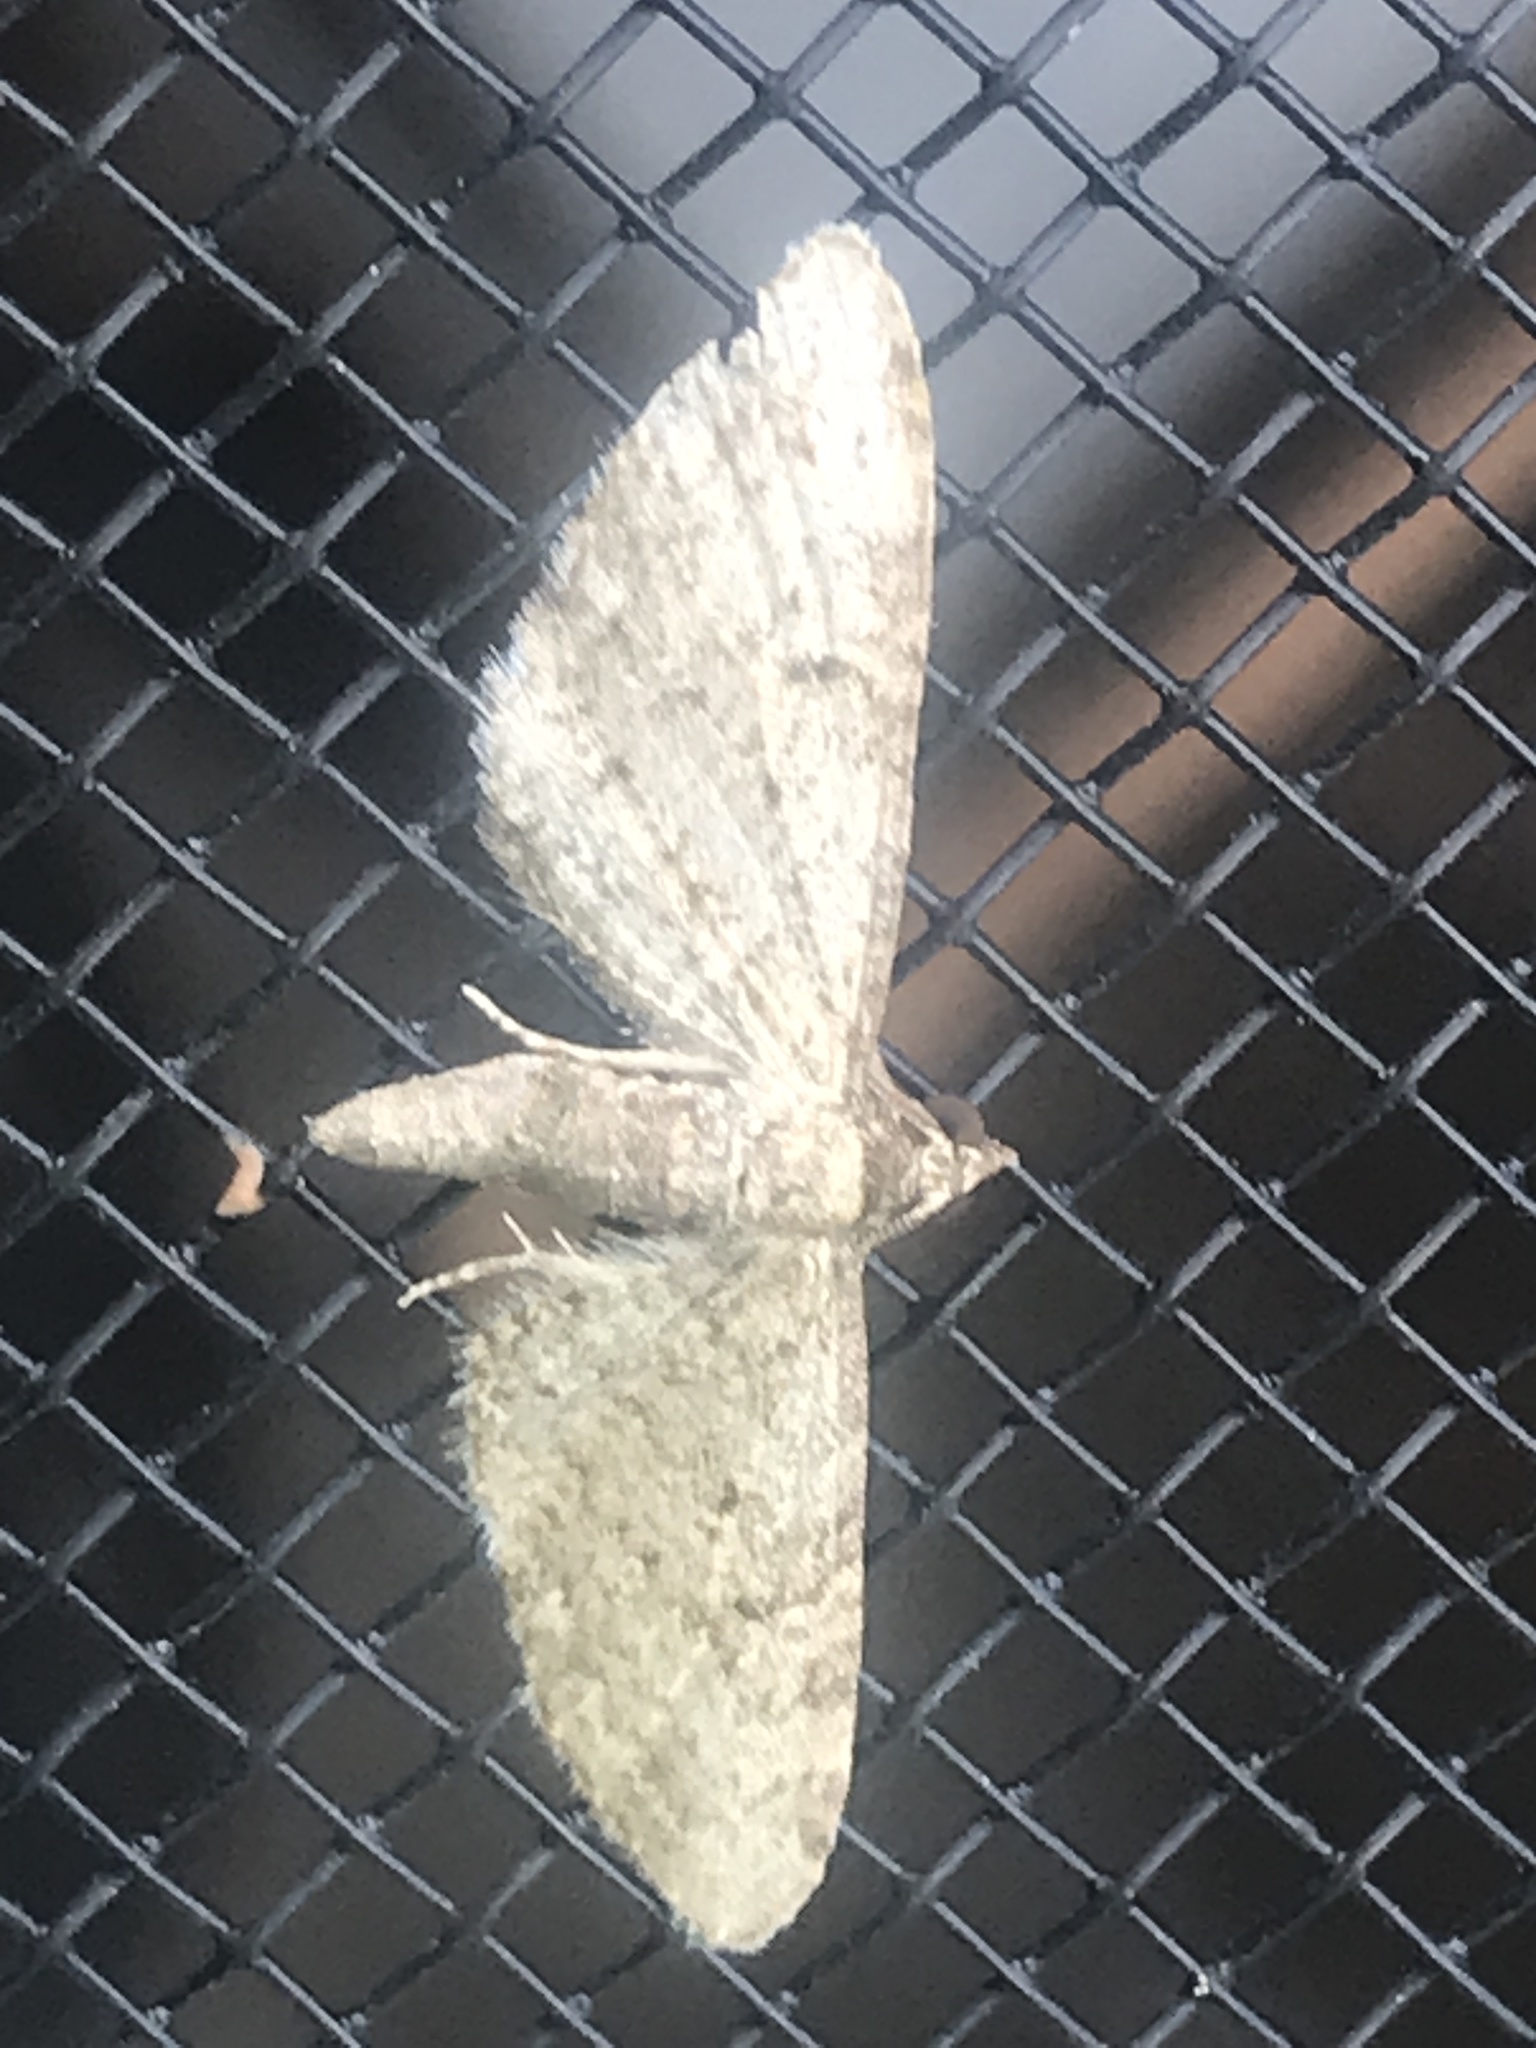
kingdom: Animalia
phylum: Arthropoda
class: Insecta
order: Lepidoptera
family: Geometridae
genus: Eupithecia
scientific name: Eupithecia miserulata
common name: Common eupithecia
